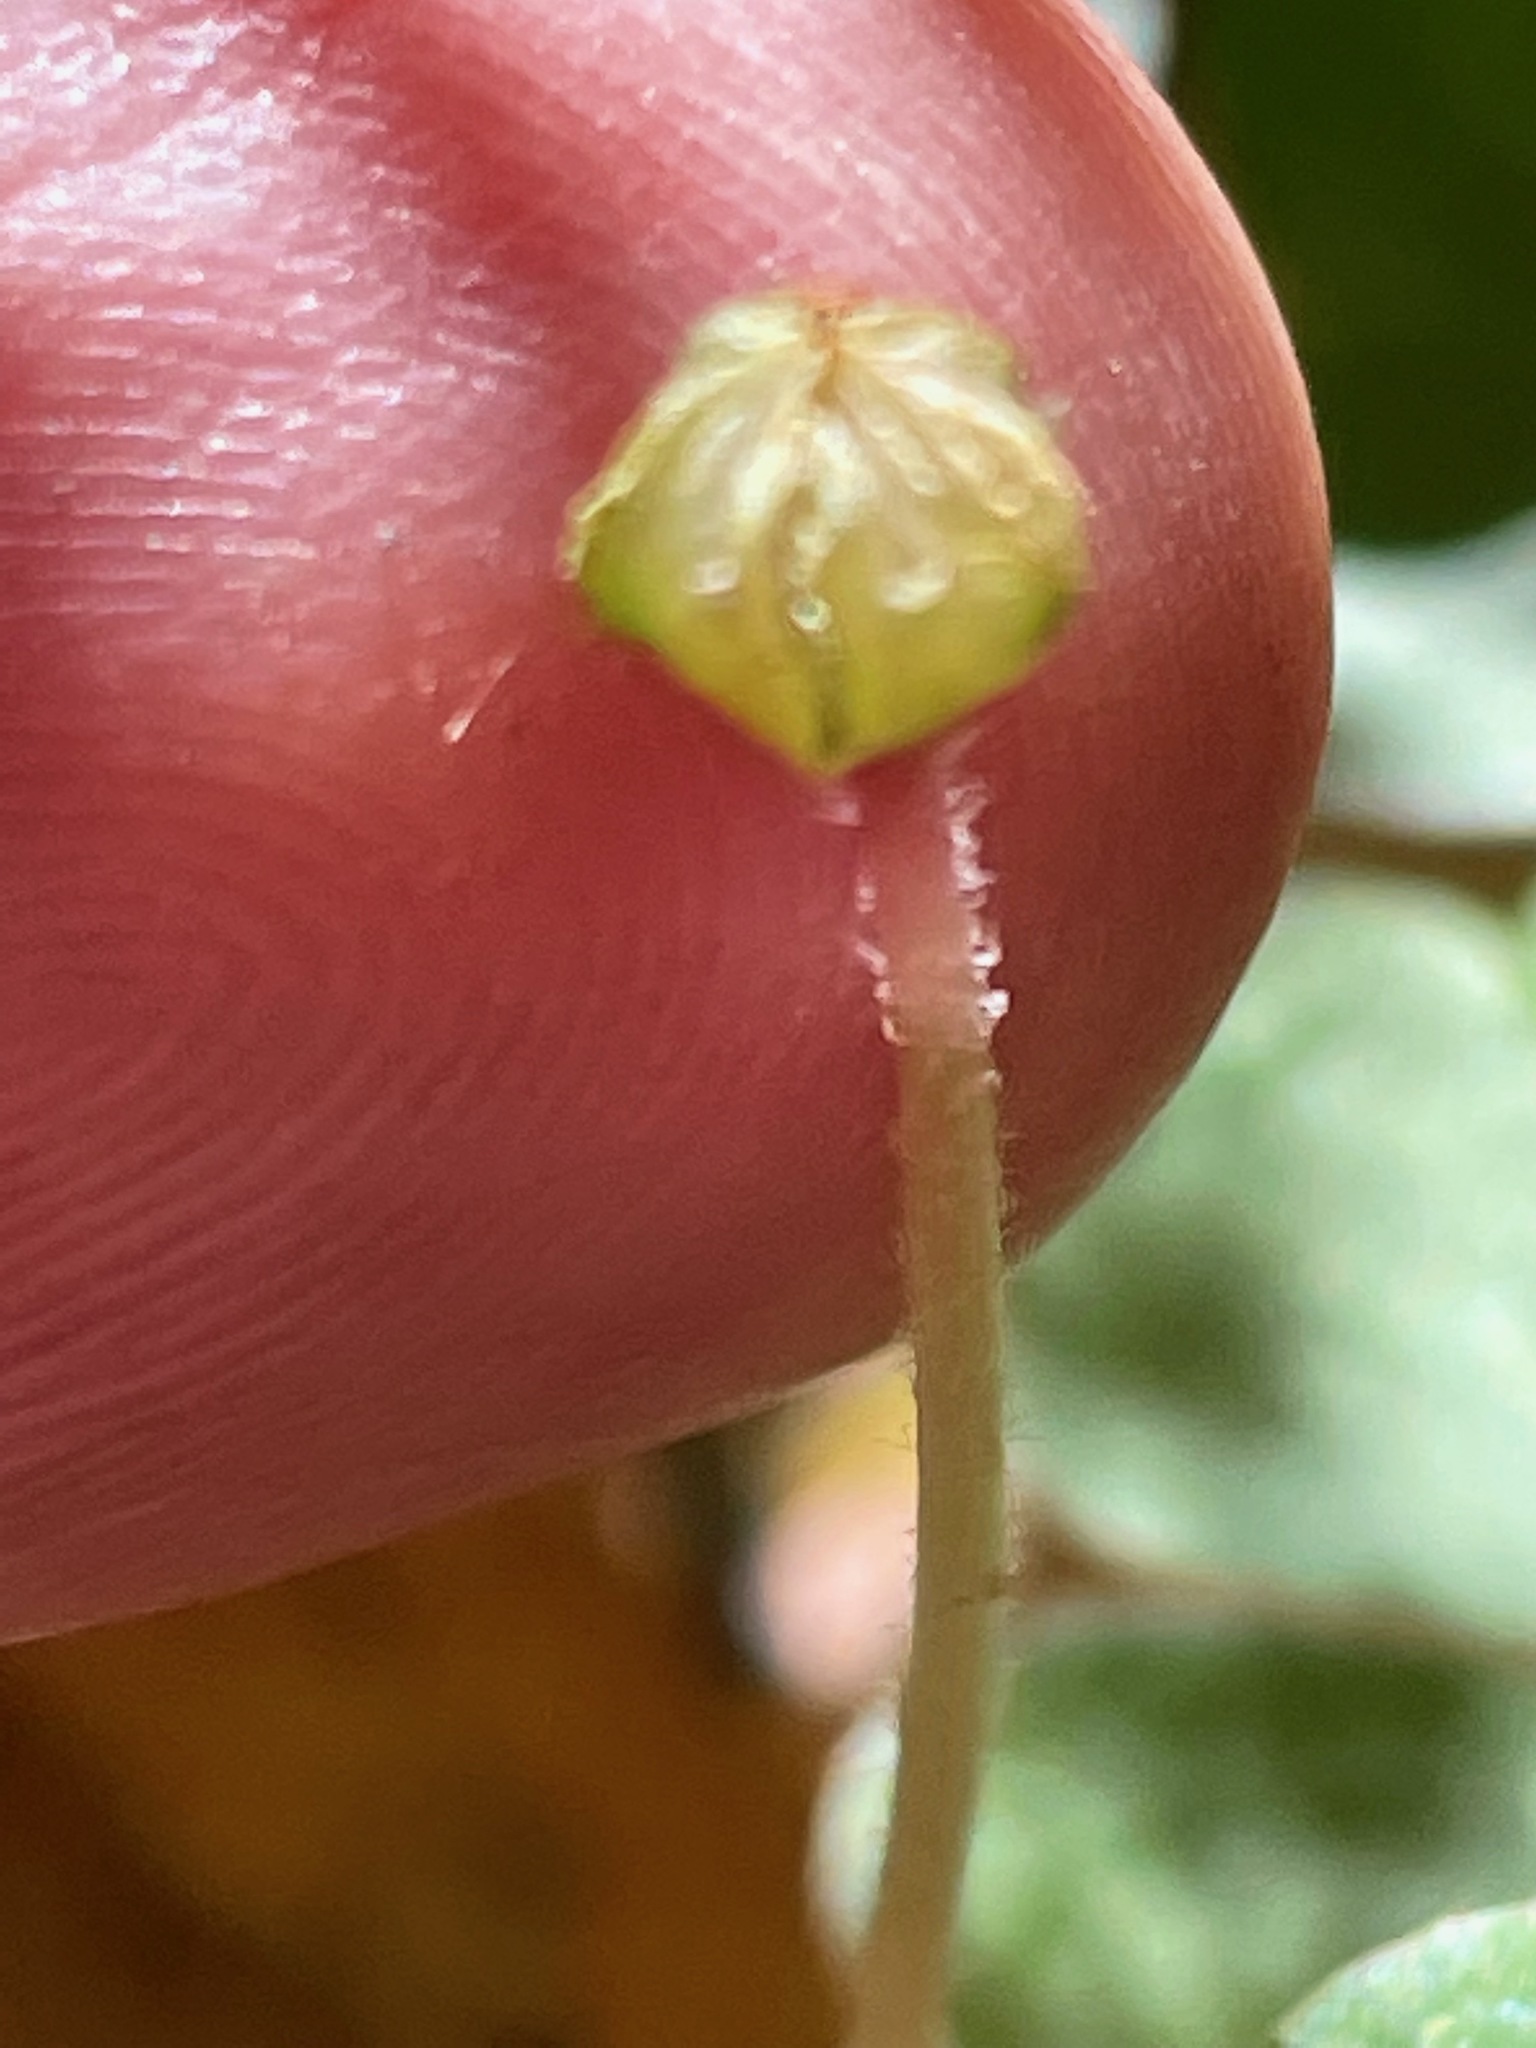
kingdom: Plantae
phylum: Tracheophyta
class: Magnoliopsida
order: Oxalidales
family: Oxalidaceae
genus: Oxalis
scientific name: Oxalis montana
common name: American wood-sorrel
